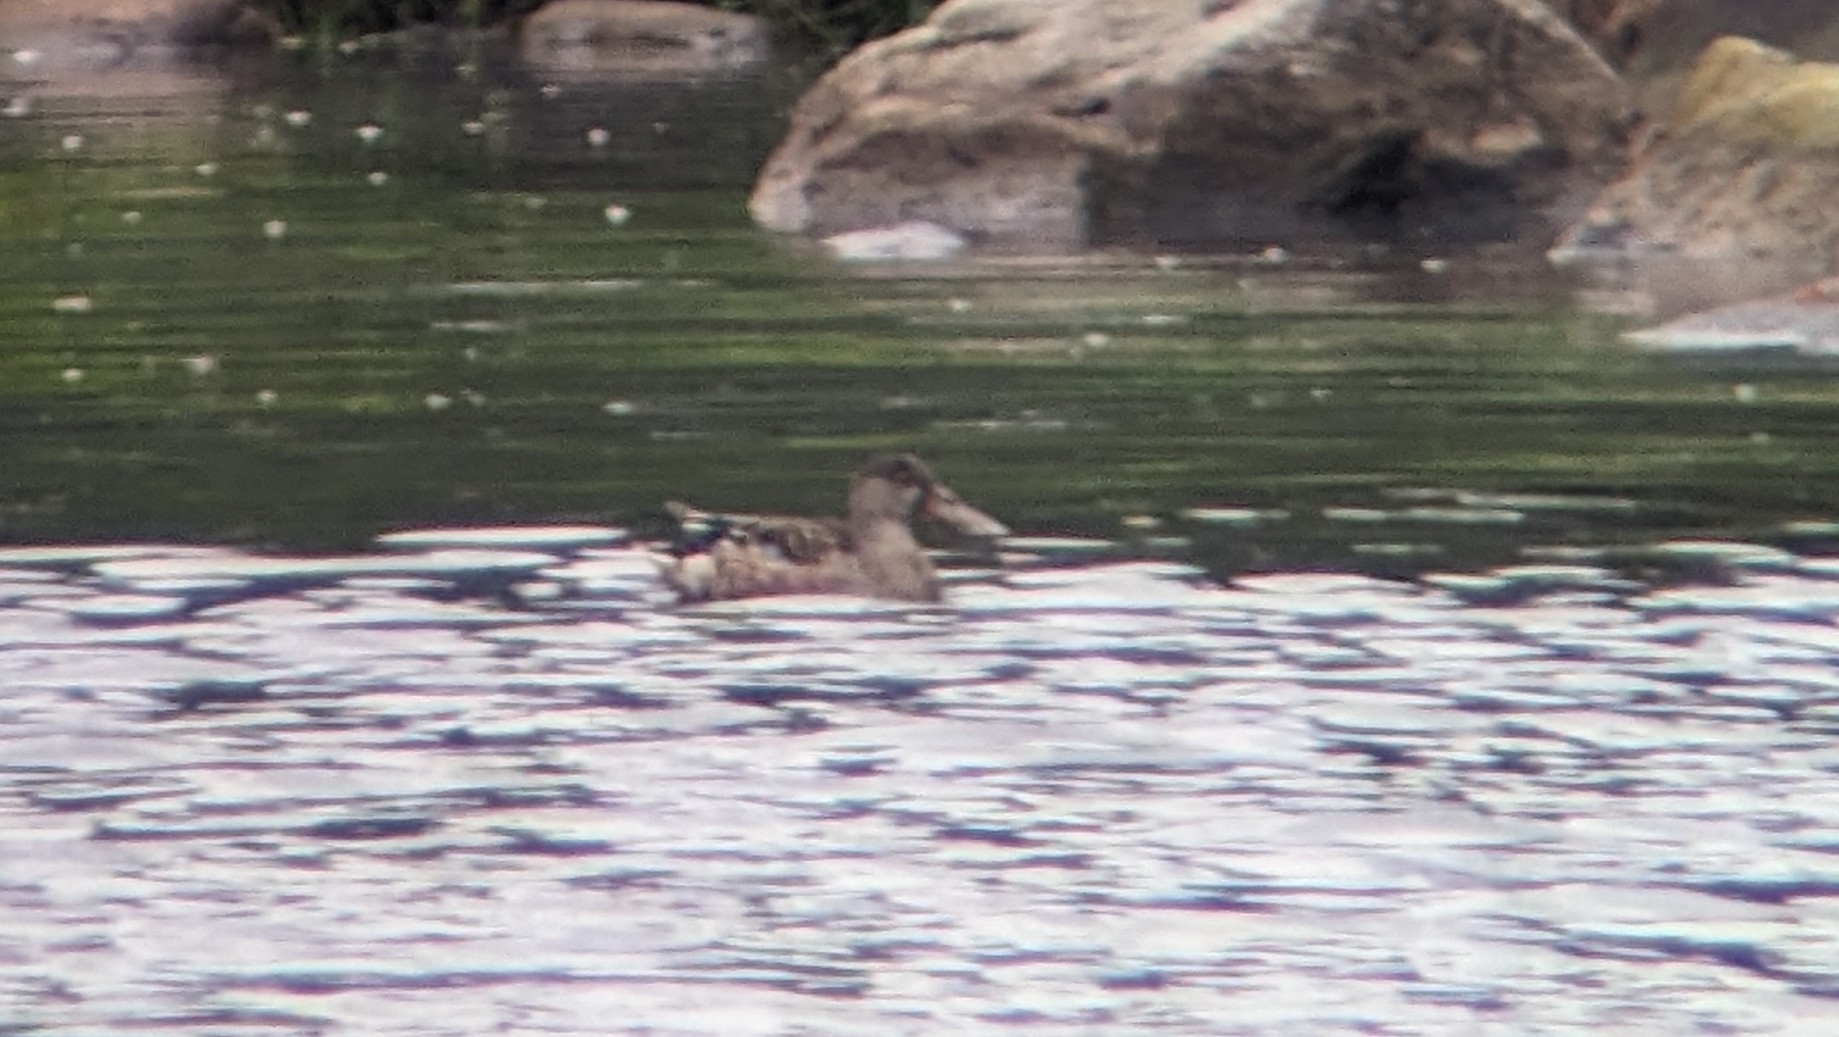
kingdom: Animalia
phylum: Chordata
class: Aves
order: Anseriformes
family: Anatidae
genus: Spatula
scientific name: Spatula clypeata
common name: Northern shoveler
